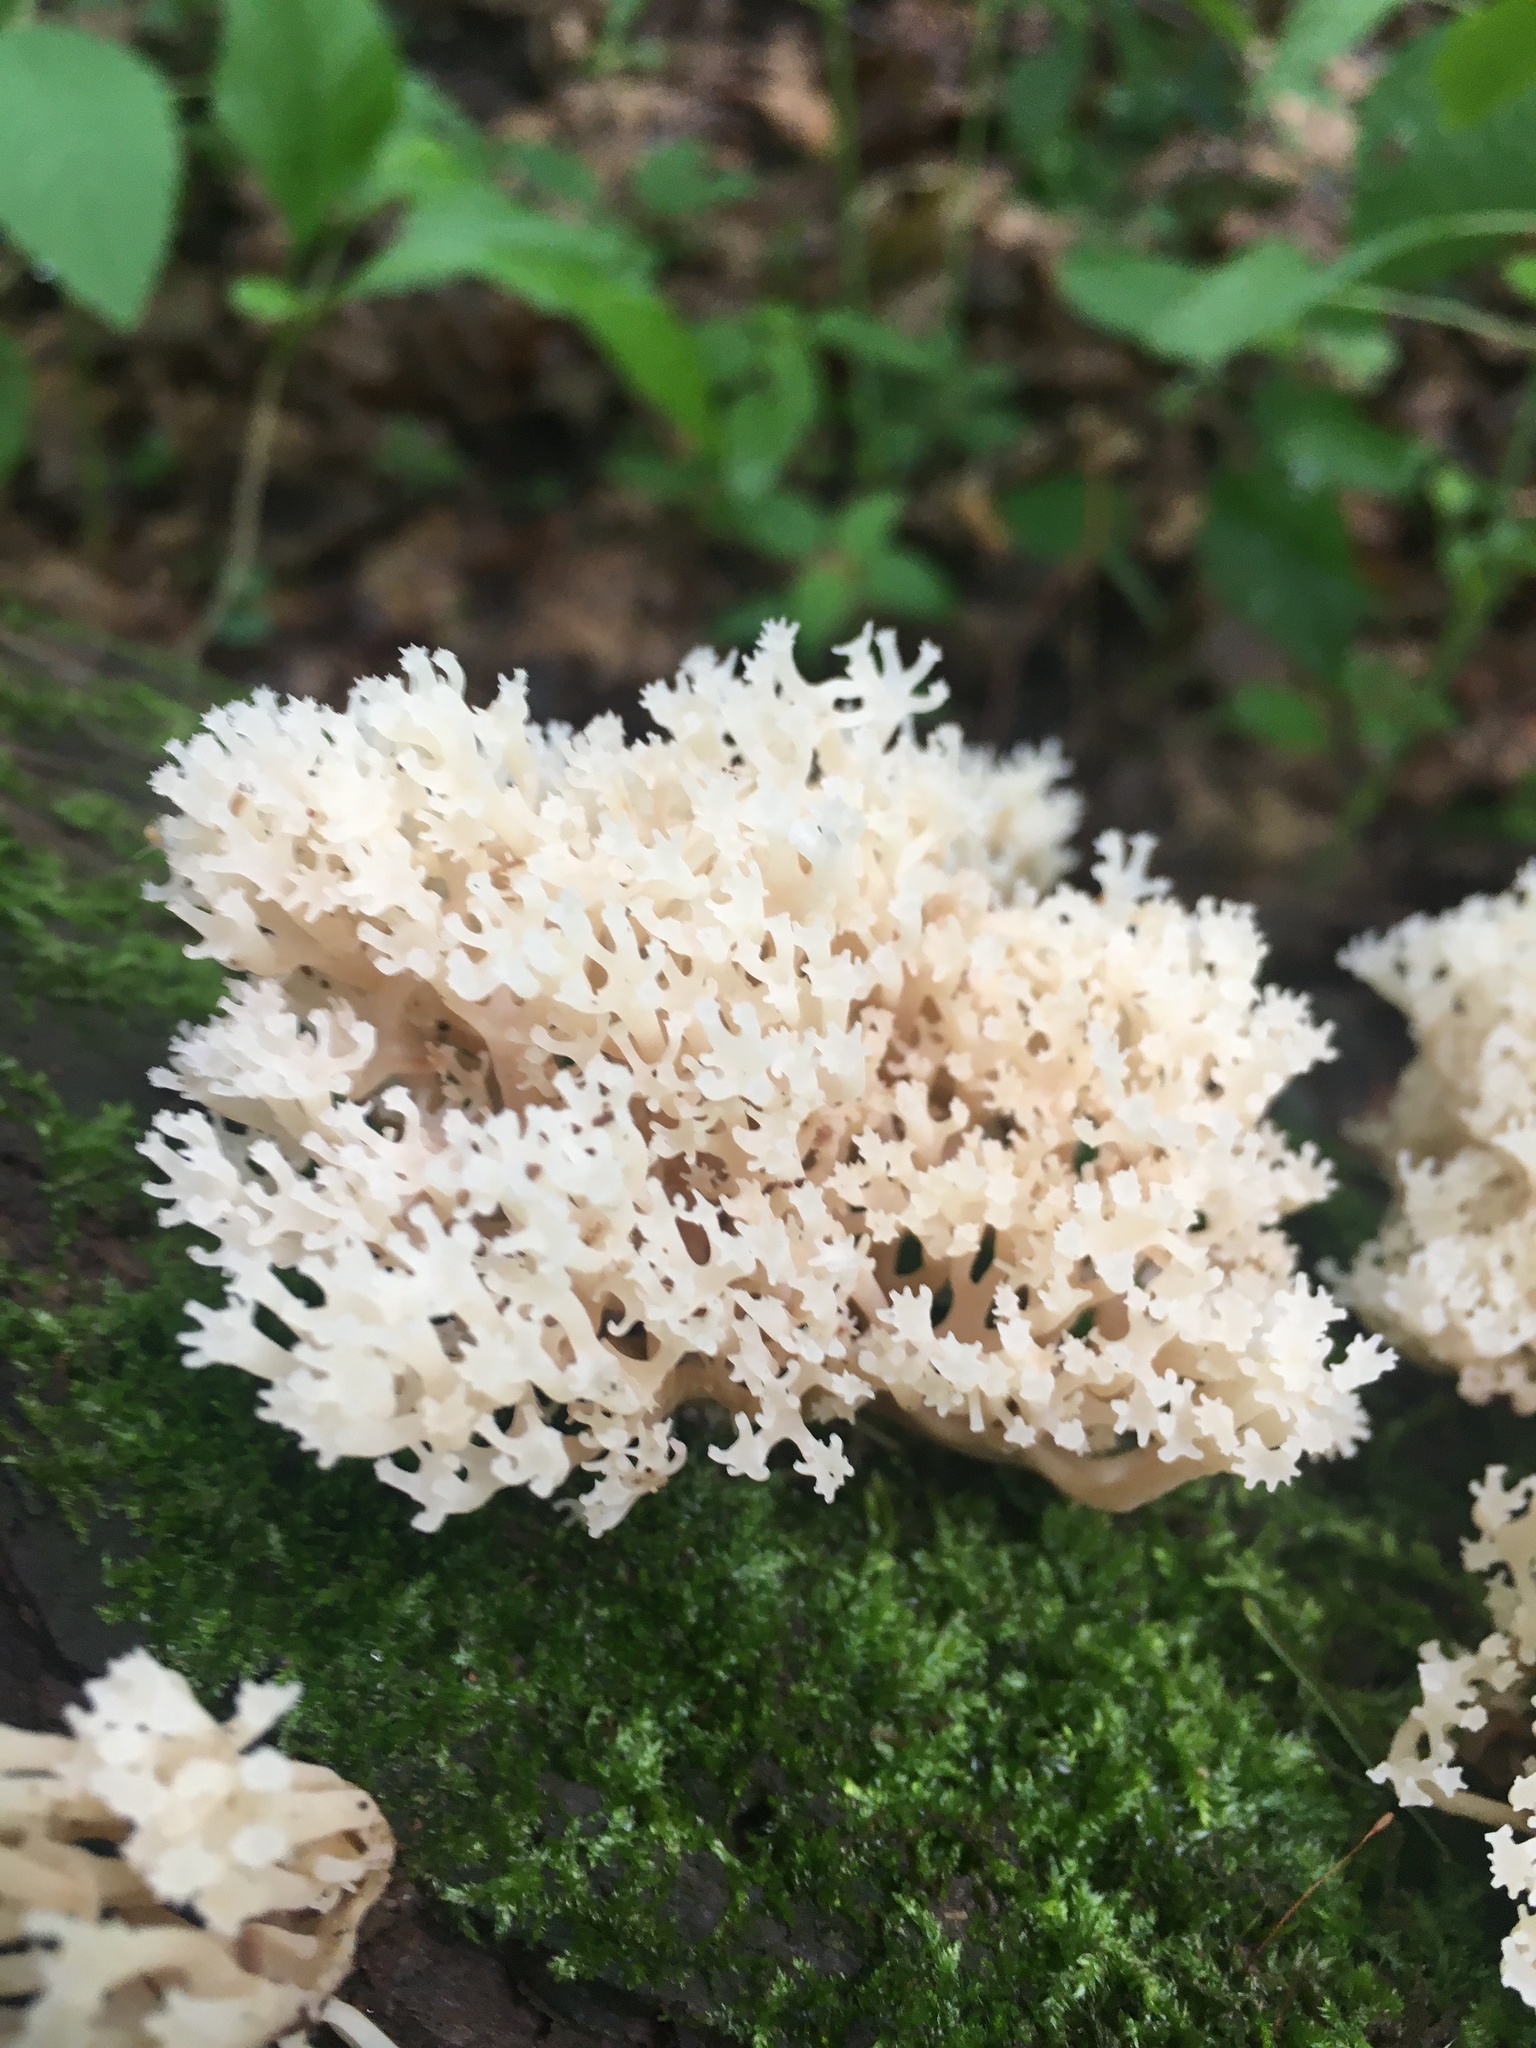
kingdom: Fungi
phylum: Basidiomycota
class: Agaricomycetes
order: Russulales
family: Auriscalpiaceae
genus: Artomyces
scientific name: Artomyces pyxidatus
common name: Crown-tipped coral fungus
